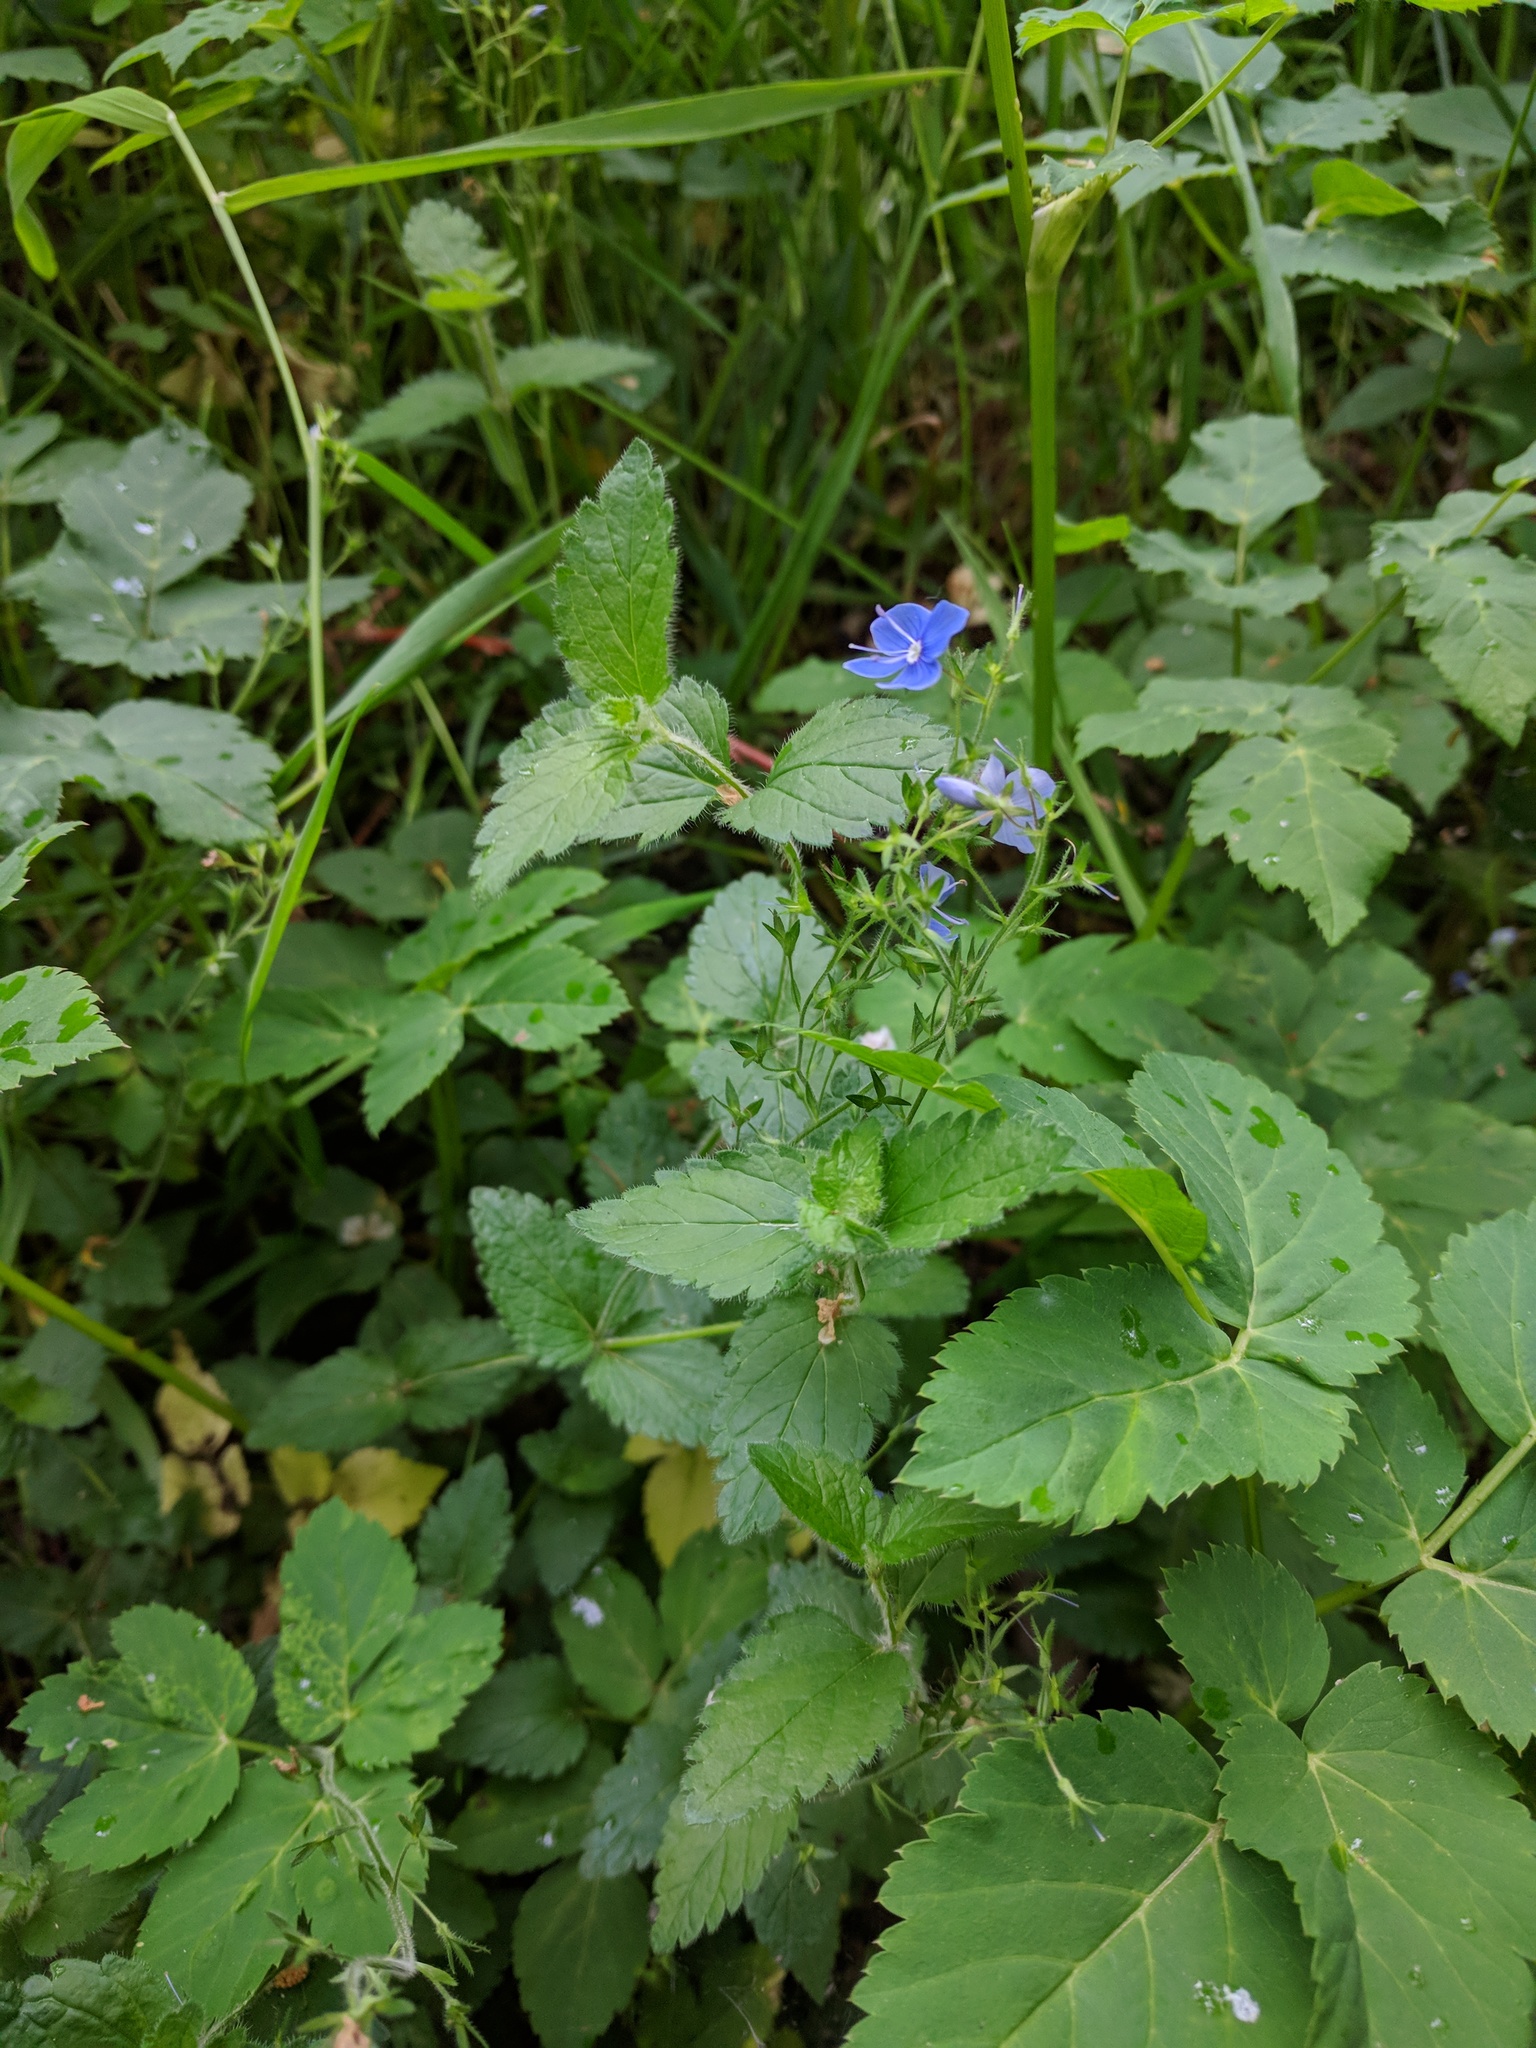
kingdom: Plantae
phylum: Tracheophyta
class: Magnoliopsida
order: Lamiales
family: Plantaginaceae
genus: Veronica
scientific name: Veronica chamaedrys
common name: Germander speedwell
